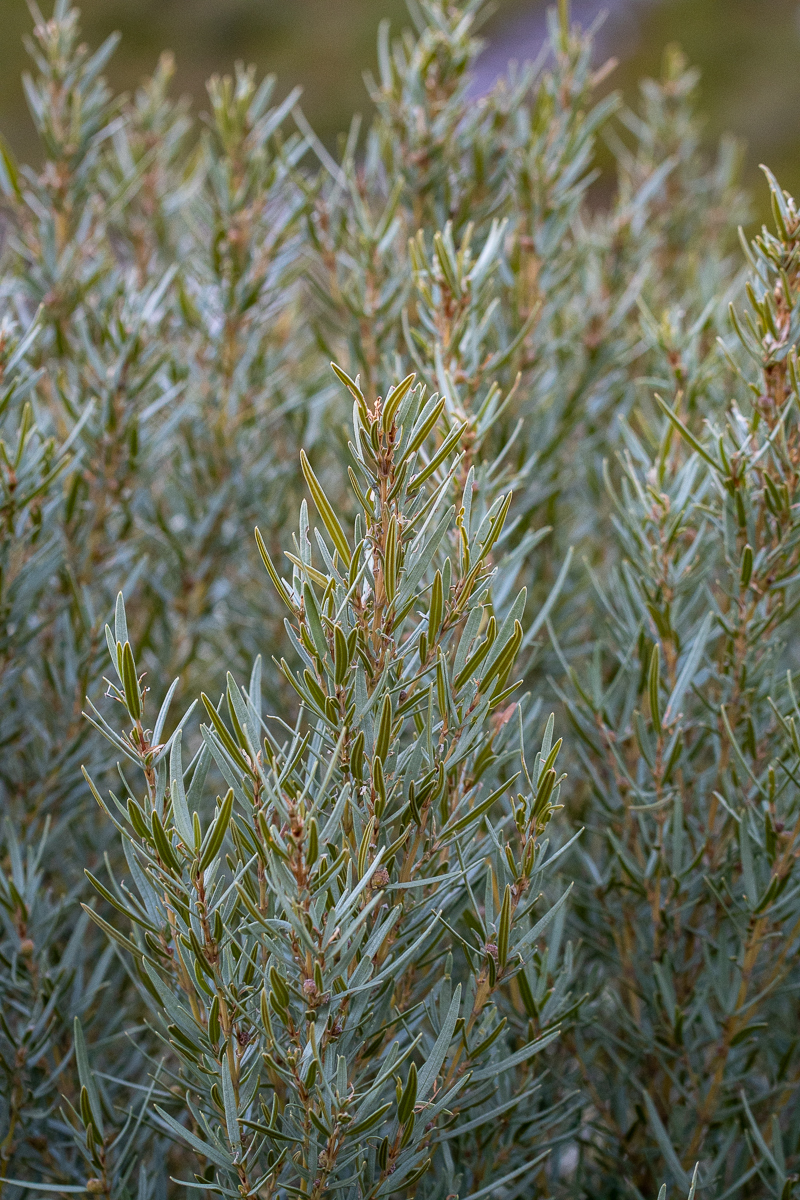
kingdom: Plantae
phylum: Tracheophyta
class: Magnoliopsida
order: Cornales
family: Grubbiaceae
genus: Grubbia
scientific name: Grubbia tomentosa
